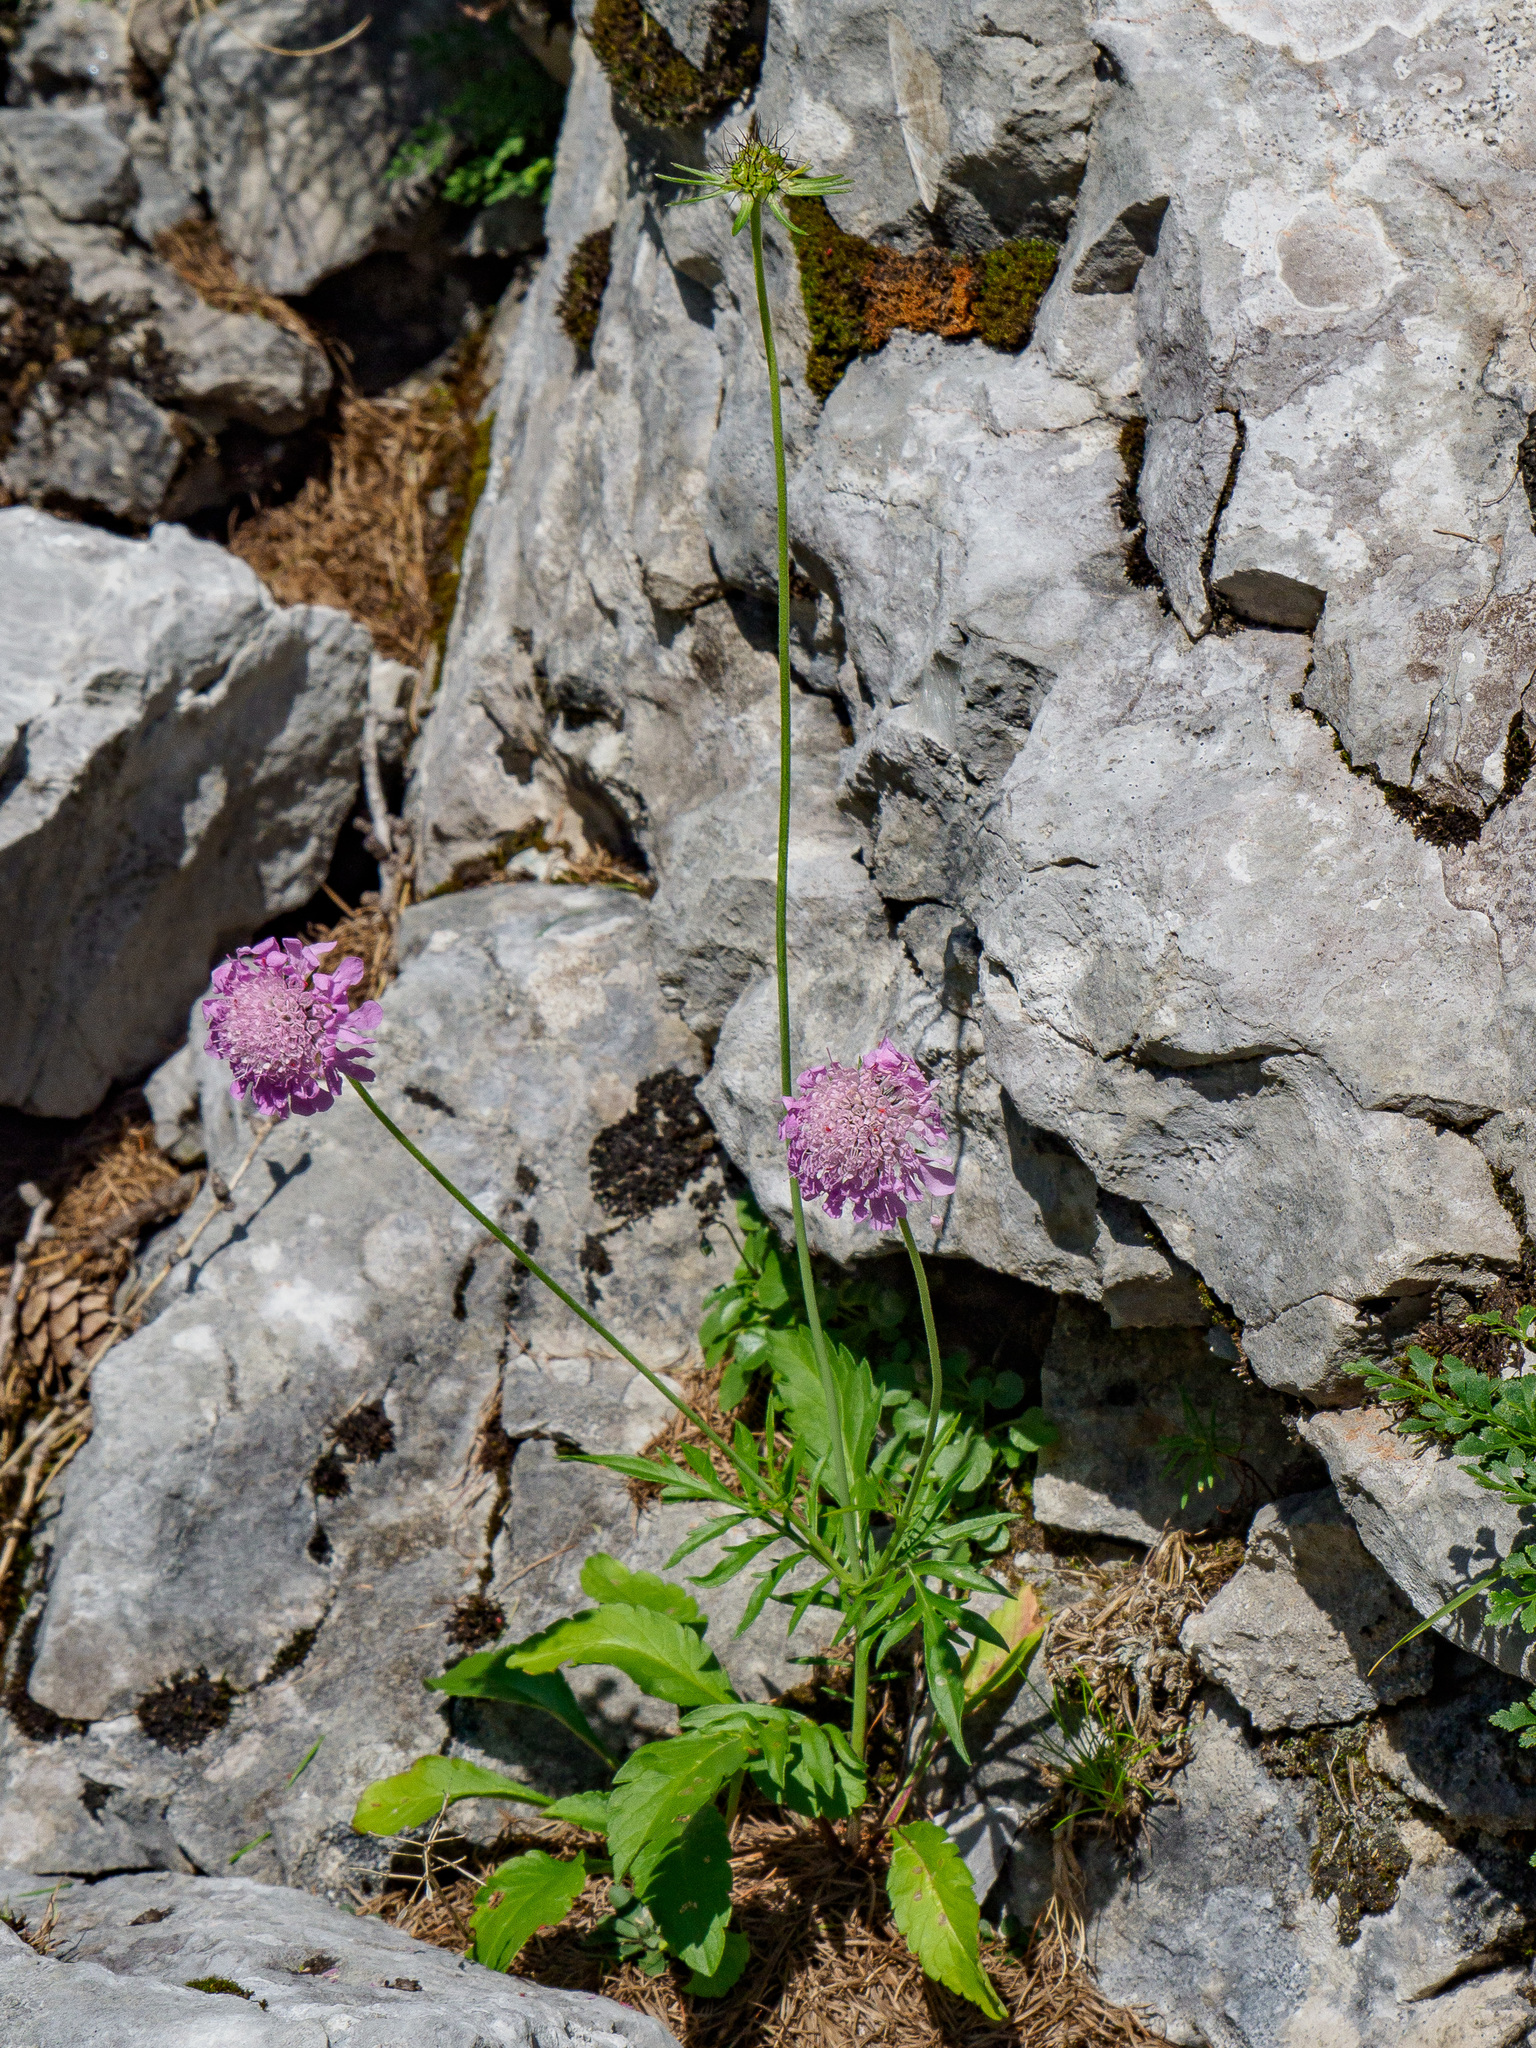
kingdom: Plantae
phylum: Tracheophyta
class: Magnoliopsida
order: Dipsacales
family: Caprifoliaceae
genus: Scabiosa
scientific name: Scabiosa lucida
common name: Shining scabious
